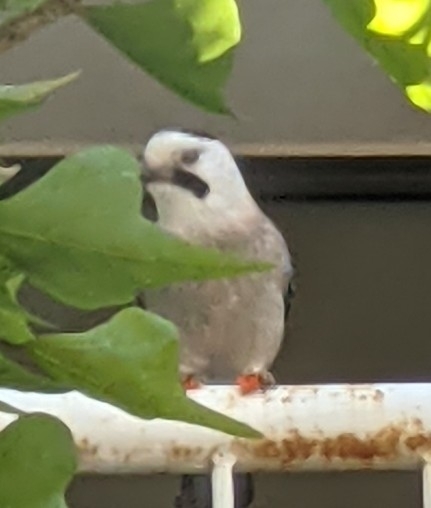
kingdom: Animalia
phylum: Chordata
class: Aves
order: Passeriformes
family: Corvidae
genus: Garrulus
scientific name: Garrulus glandarius
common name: Eurasian jay
